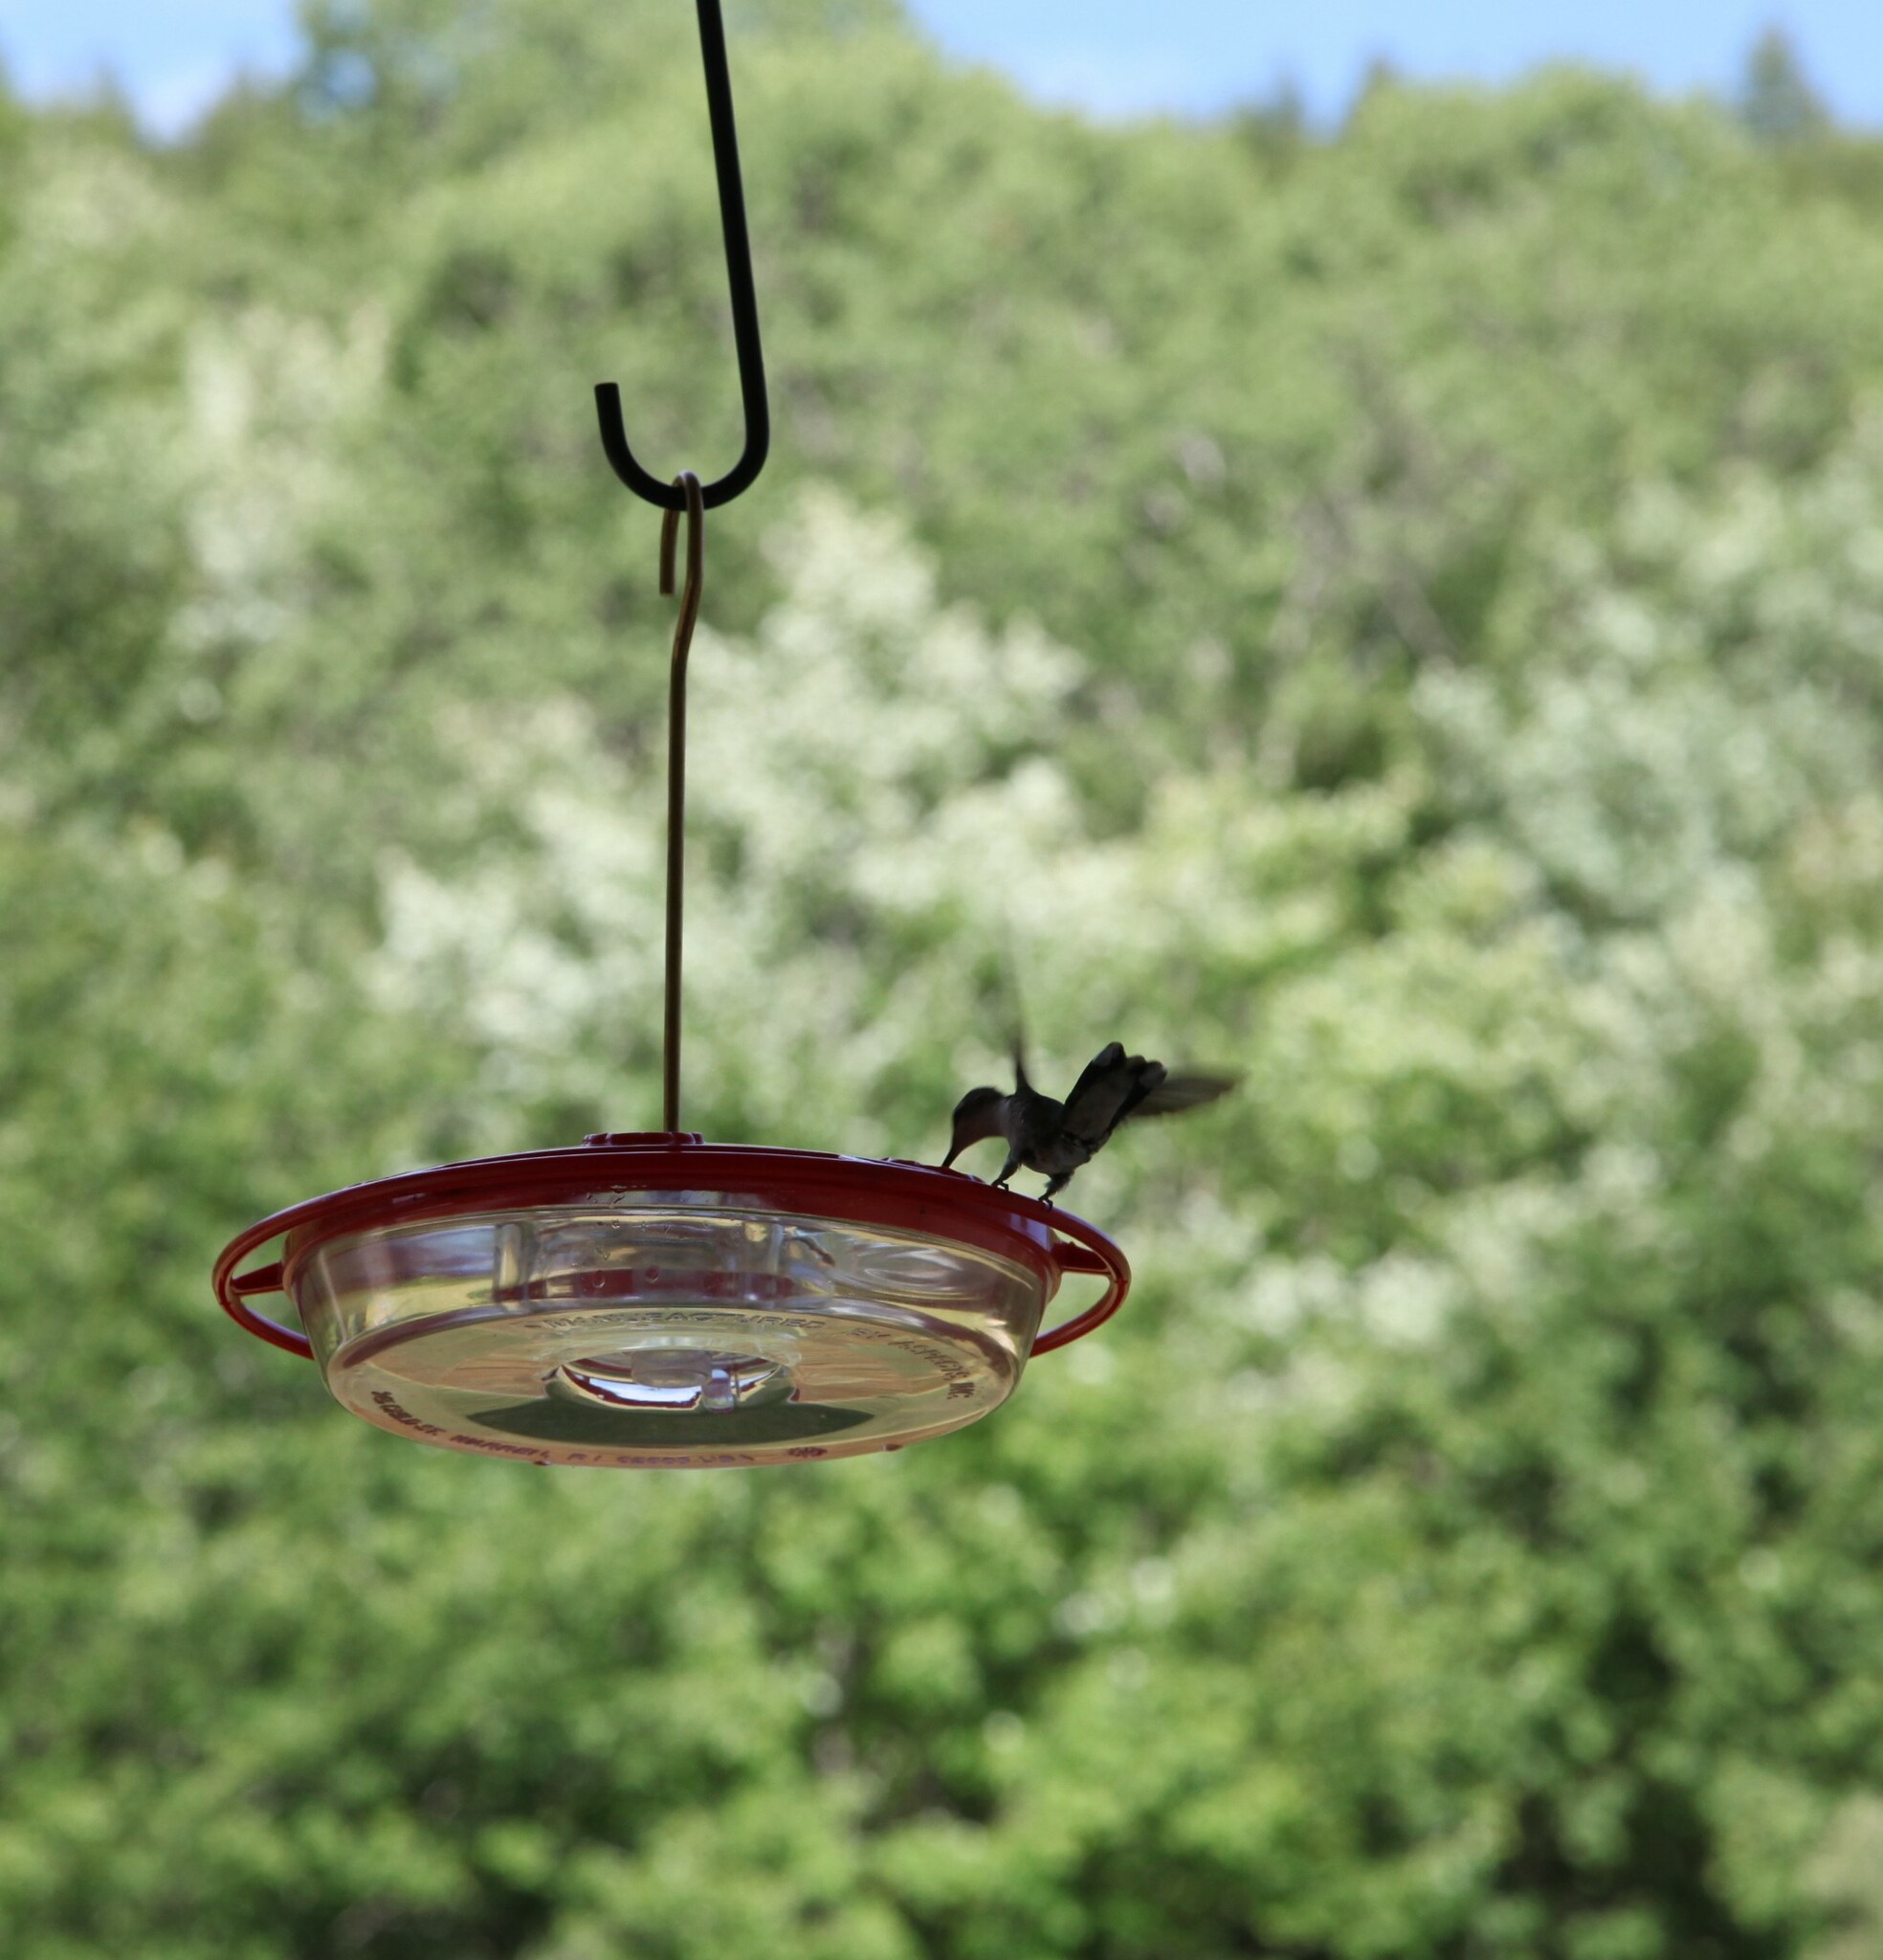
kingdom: Animalia
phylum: Chordata
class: Aves
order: Apodiformes
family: Trochilidae
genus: Archilochus
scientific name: Archilochus colubris
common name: Ruby-throated hummingbird
